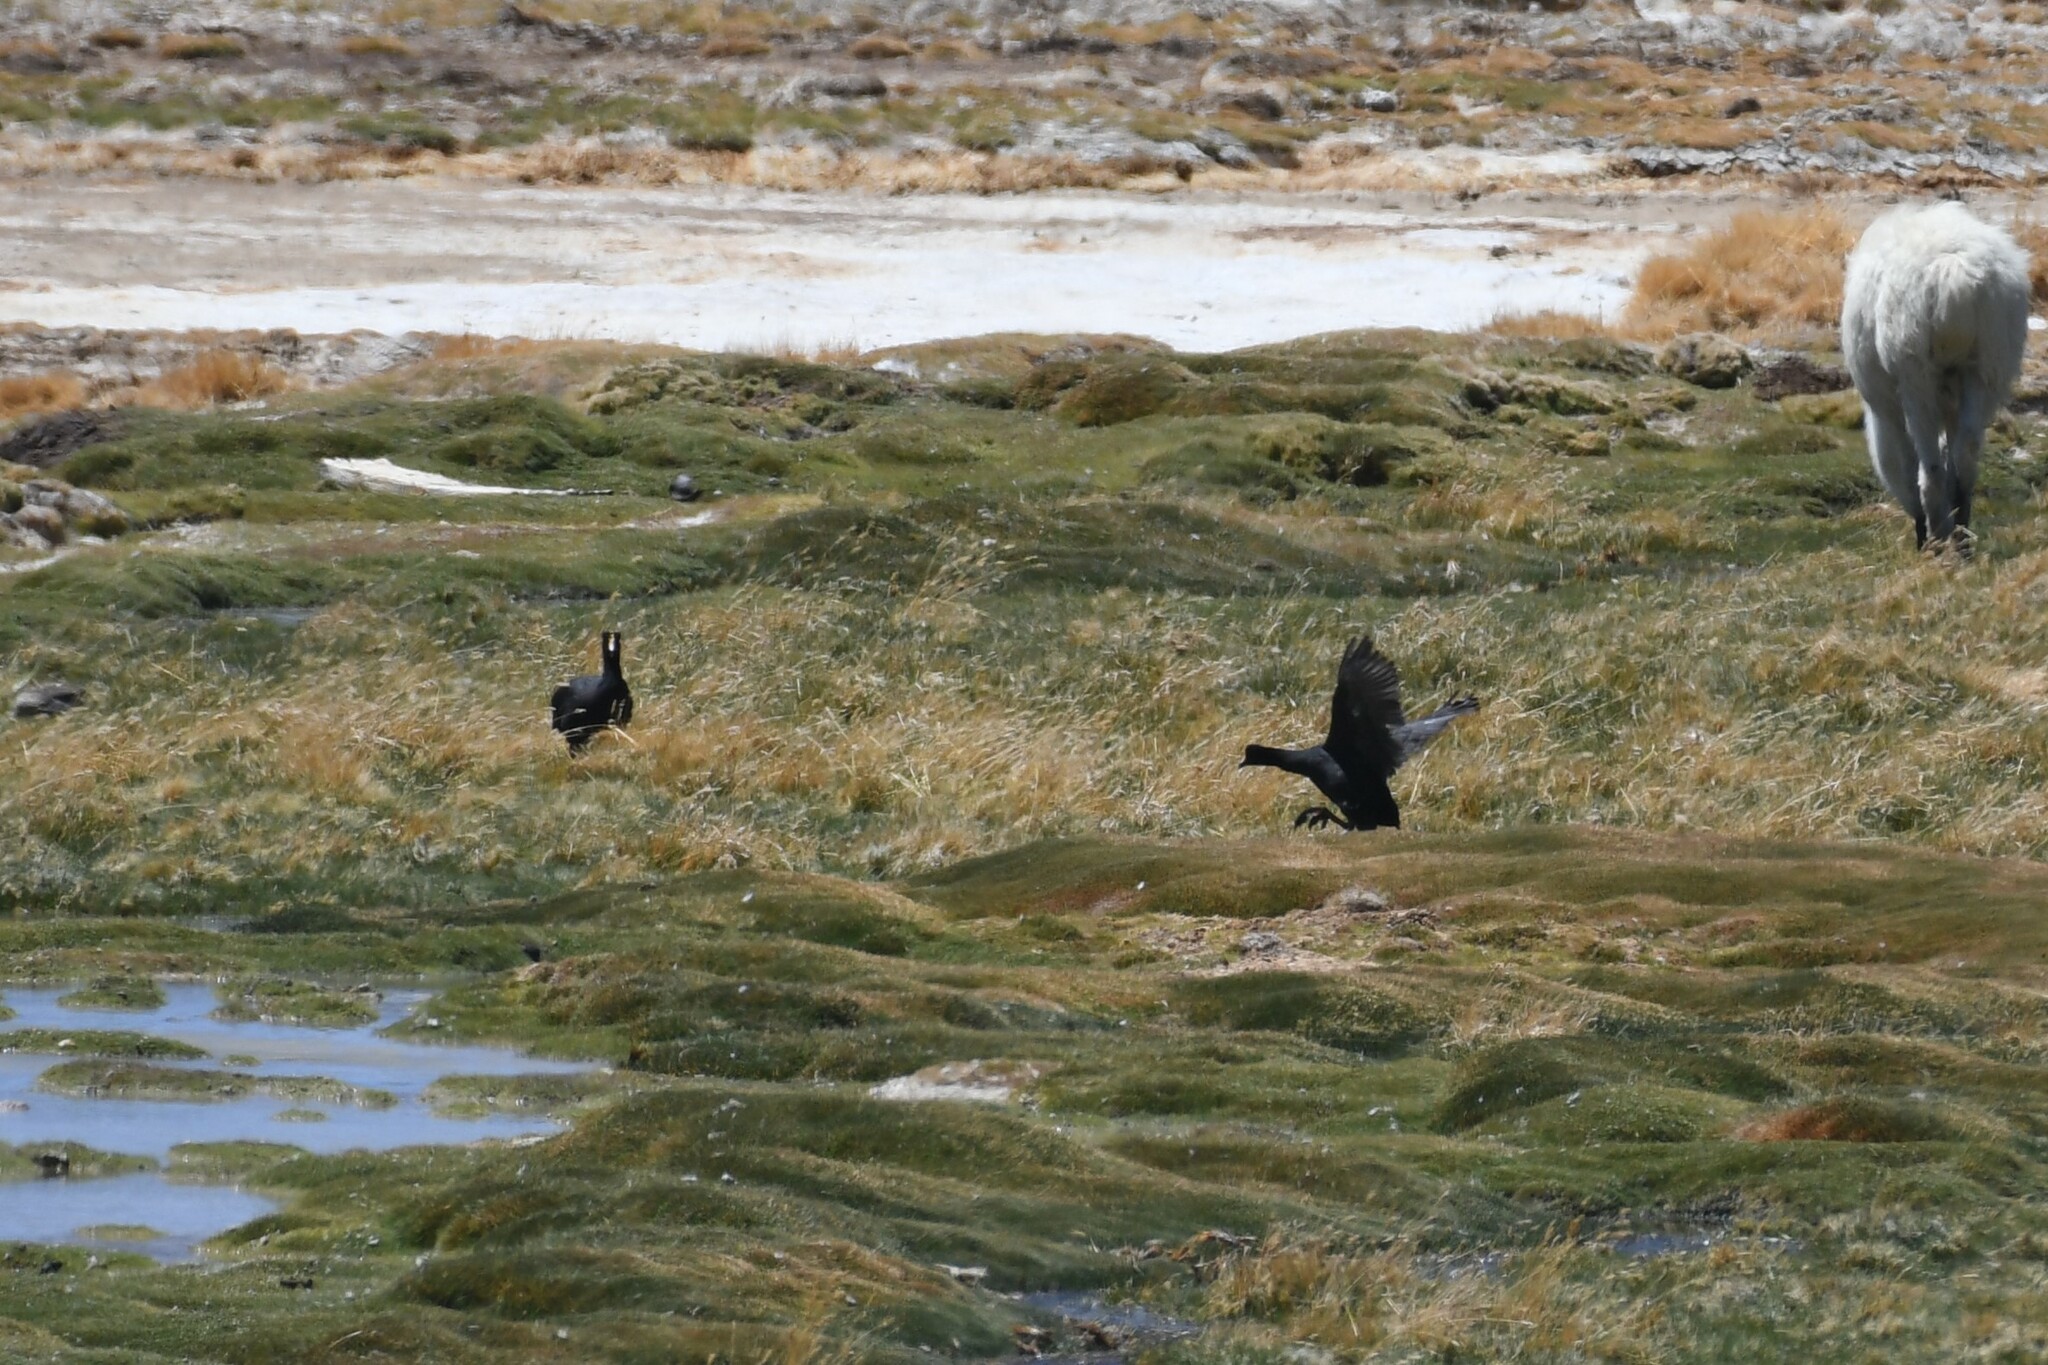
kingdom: Animalia
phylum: Chordata
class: Aves
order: Gruiformes
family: Rallidae
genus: Fulica
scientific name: Fulica gigantea
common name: Giant coot
